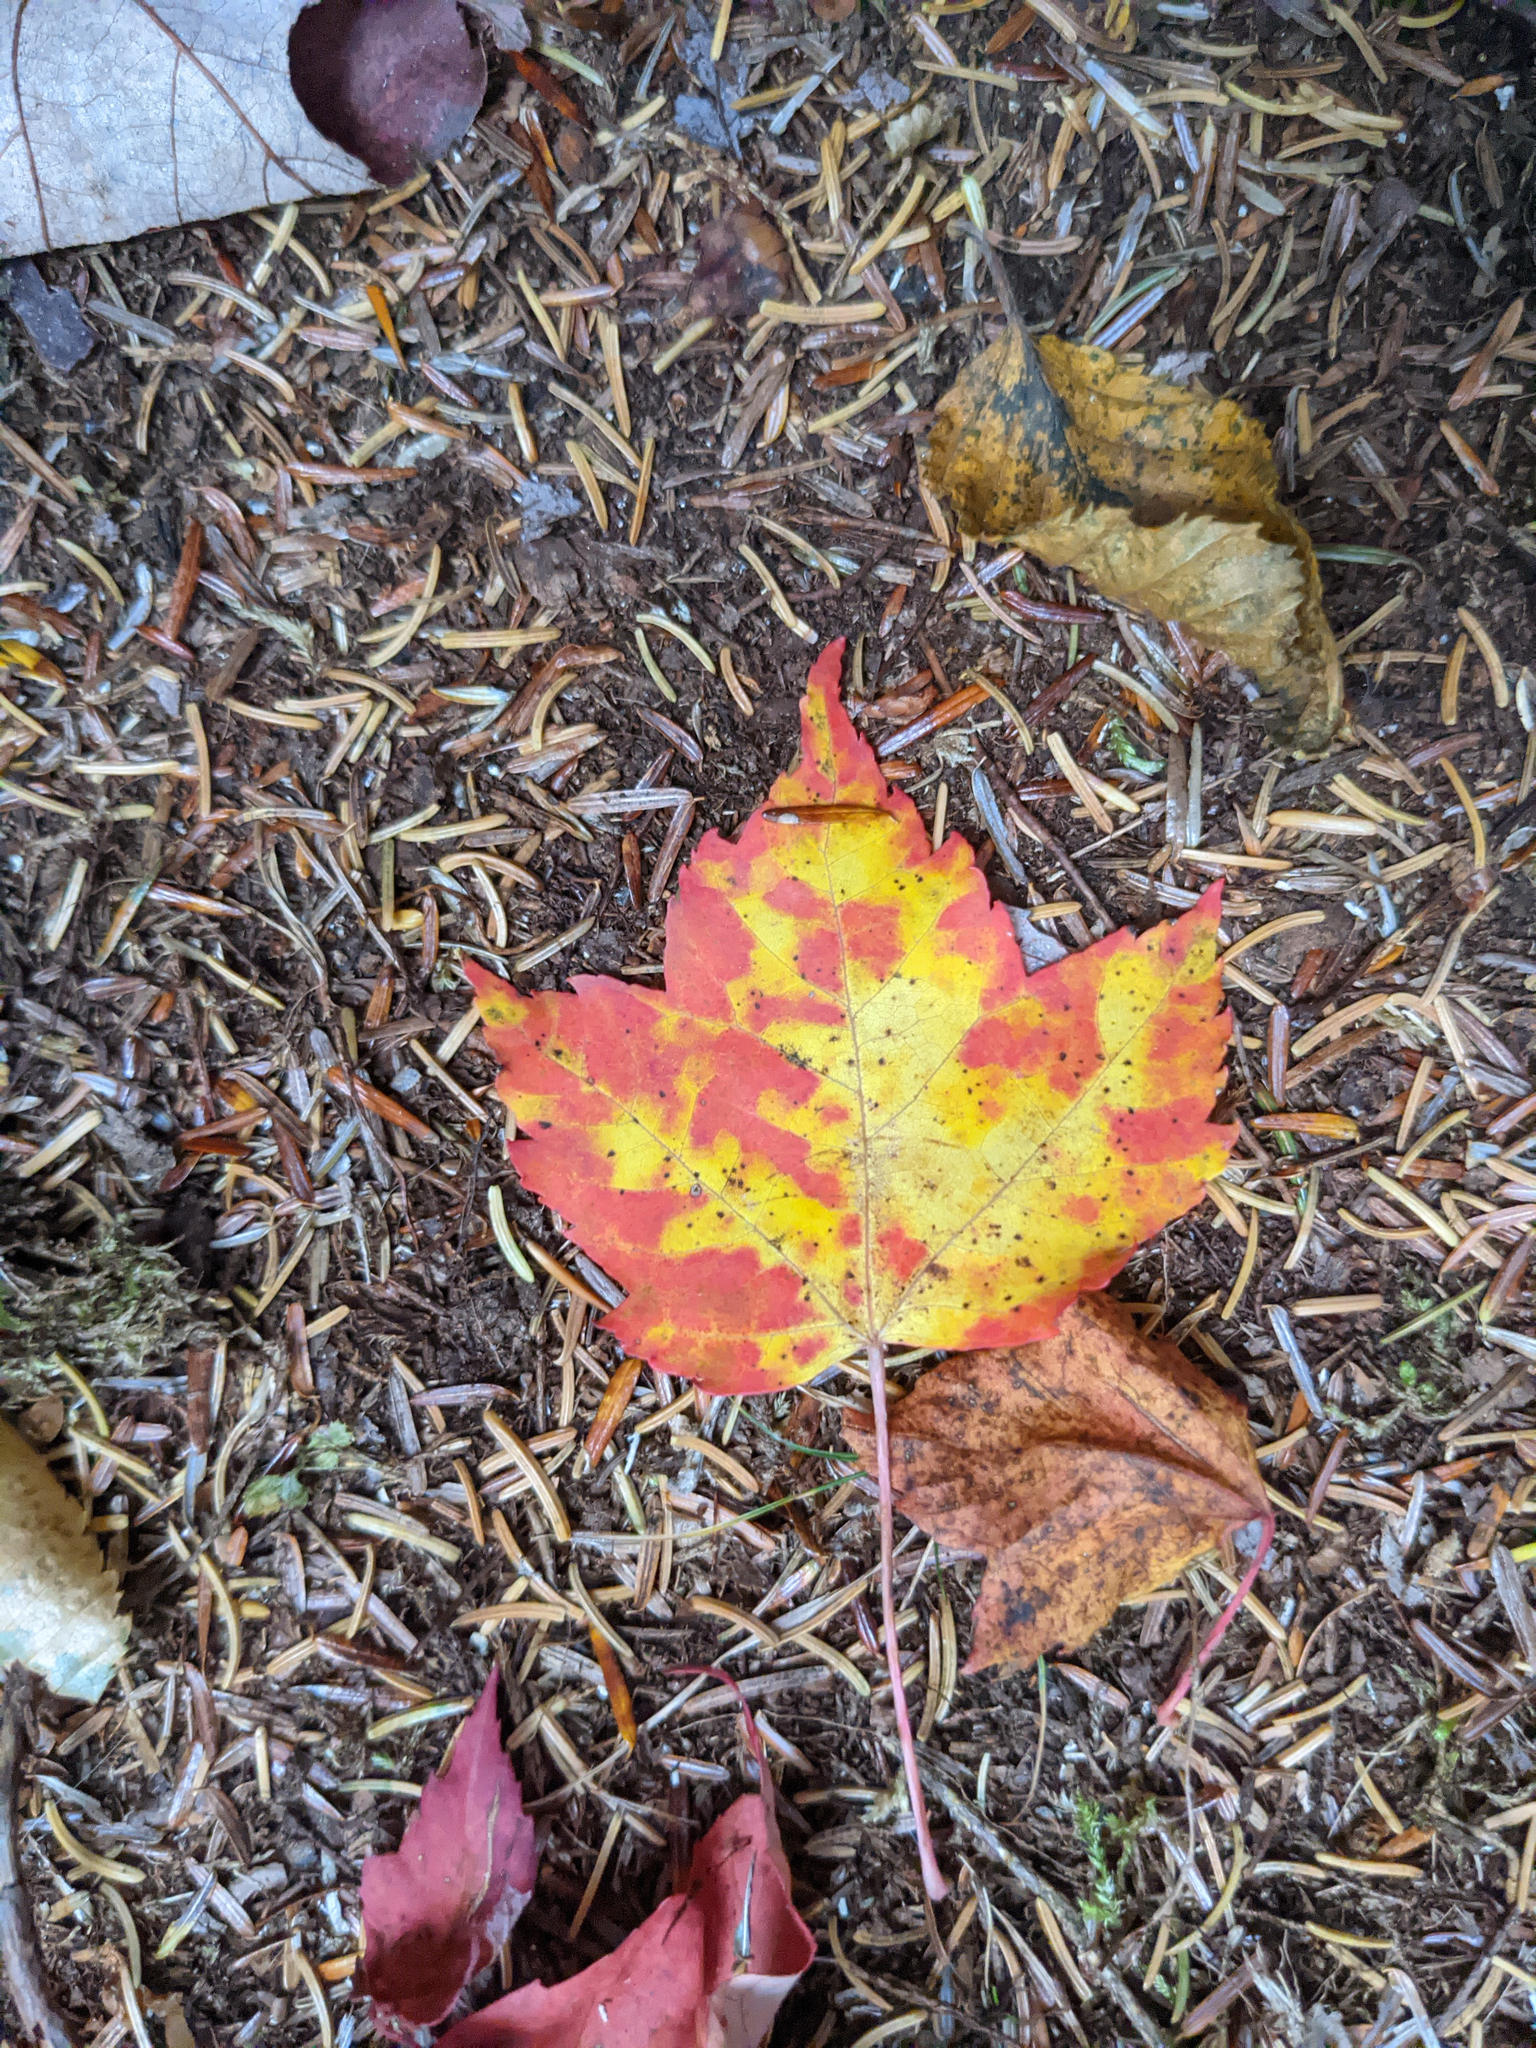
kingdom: Plantae
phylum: Tracheophyta
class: Magnoliopsida
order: Sapindales
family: Sapindaceae
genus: Acer
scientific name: Acer rubrum
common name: Red maple
